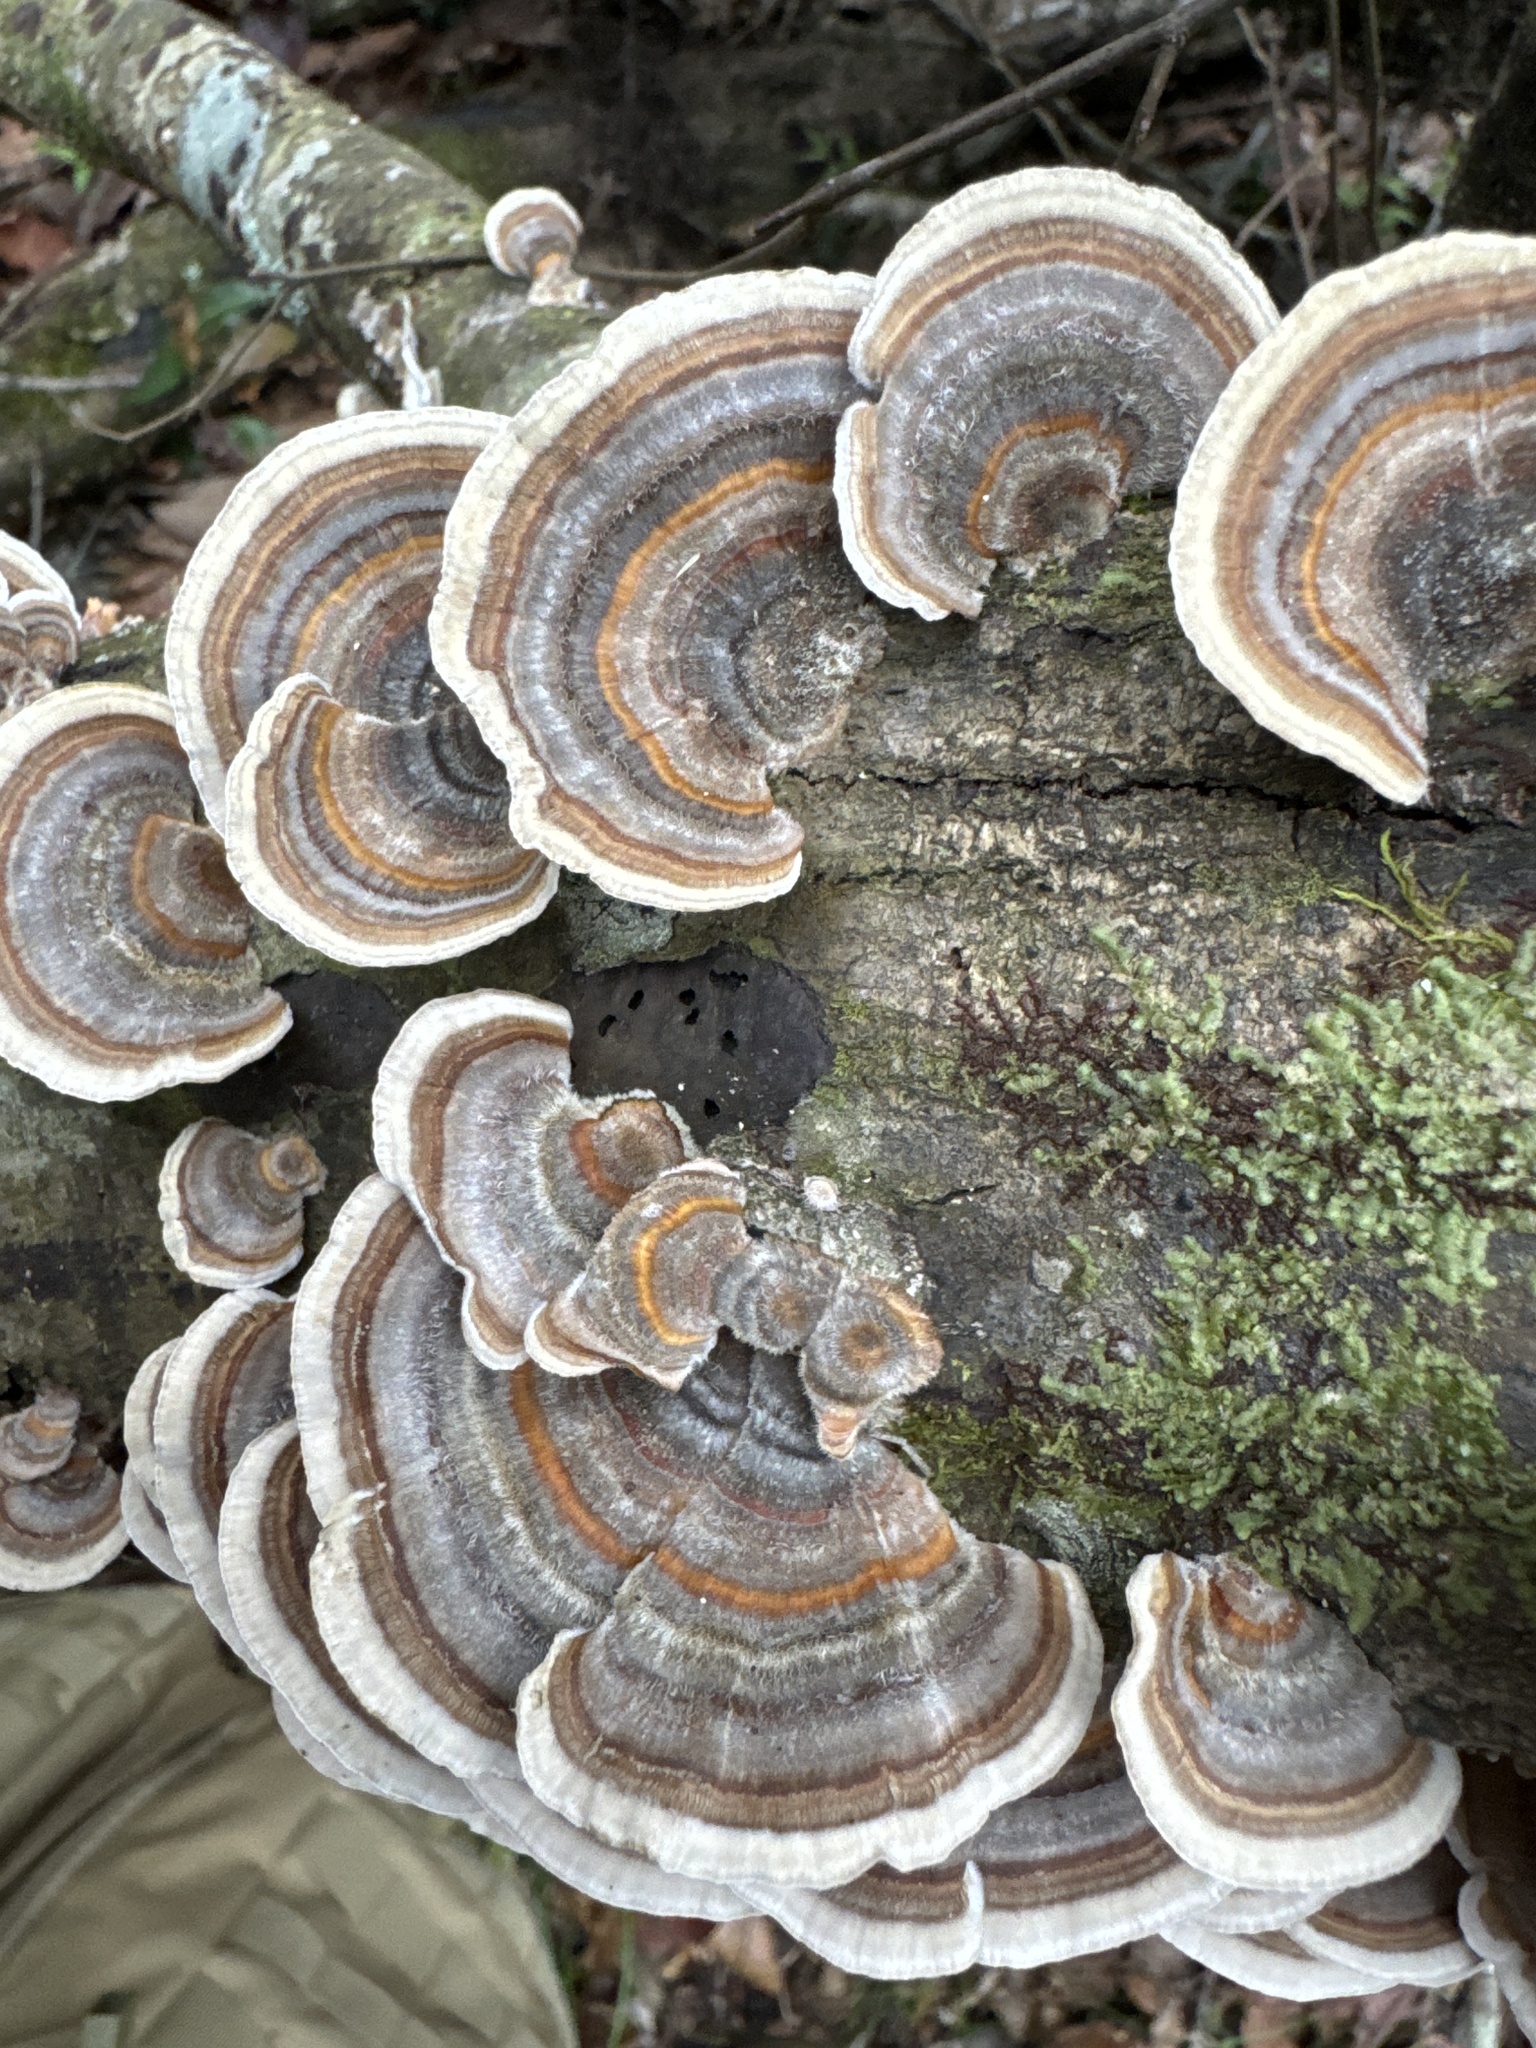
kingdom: Fungi
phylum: Basidiomycota
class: Agaricomycetes
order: Polyporales
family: Polyporaceae
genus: Trametes
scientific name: Trametes versicolor
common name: Turkeytail
